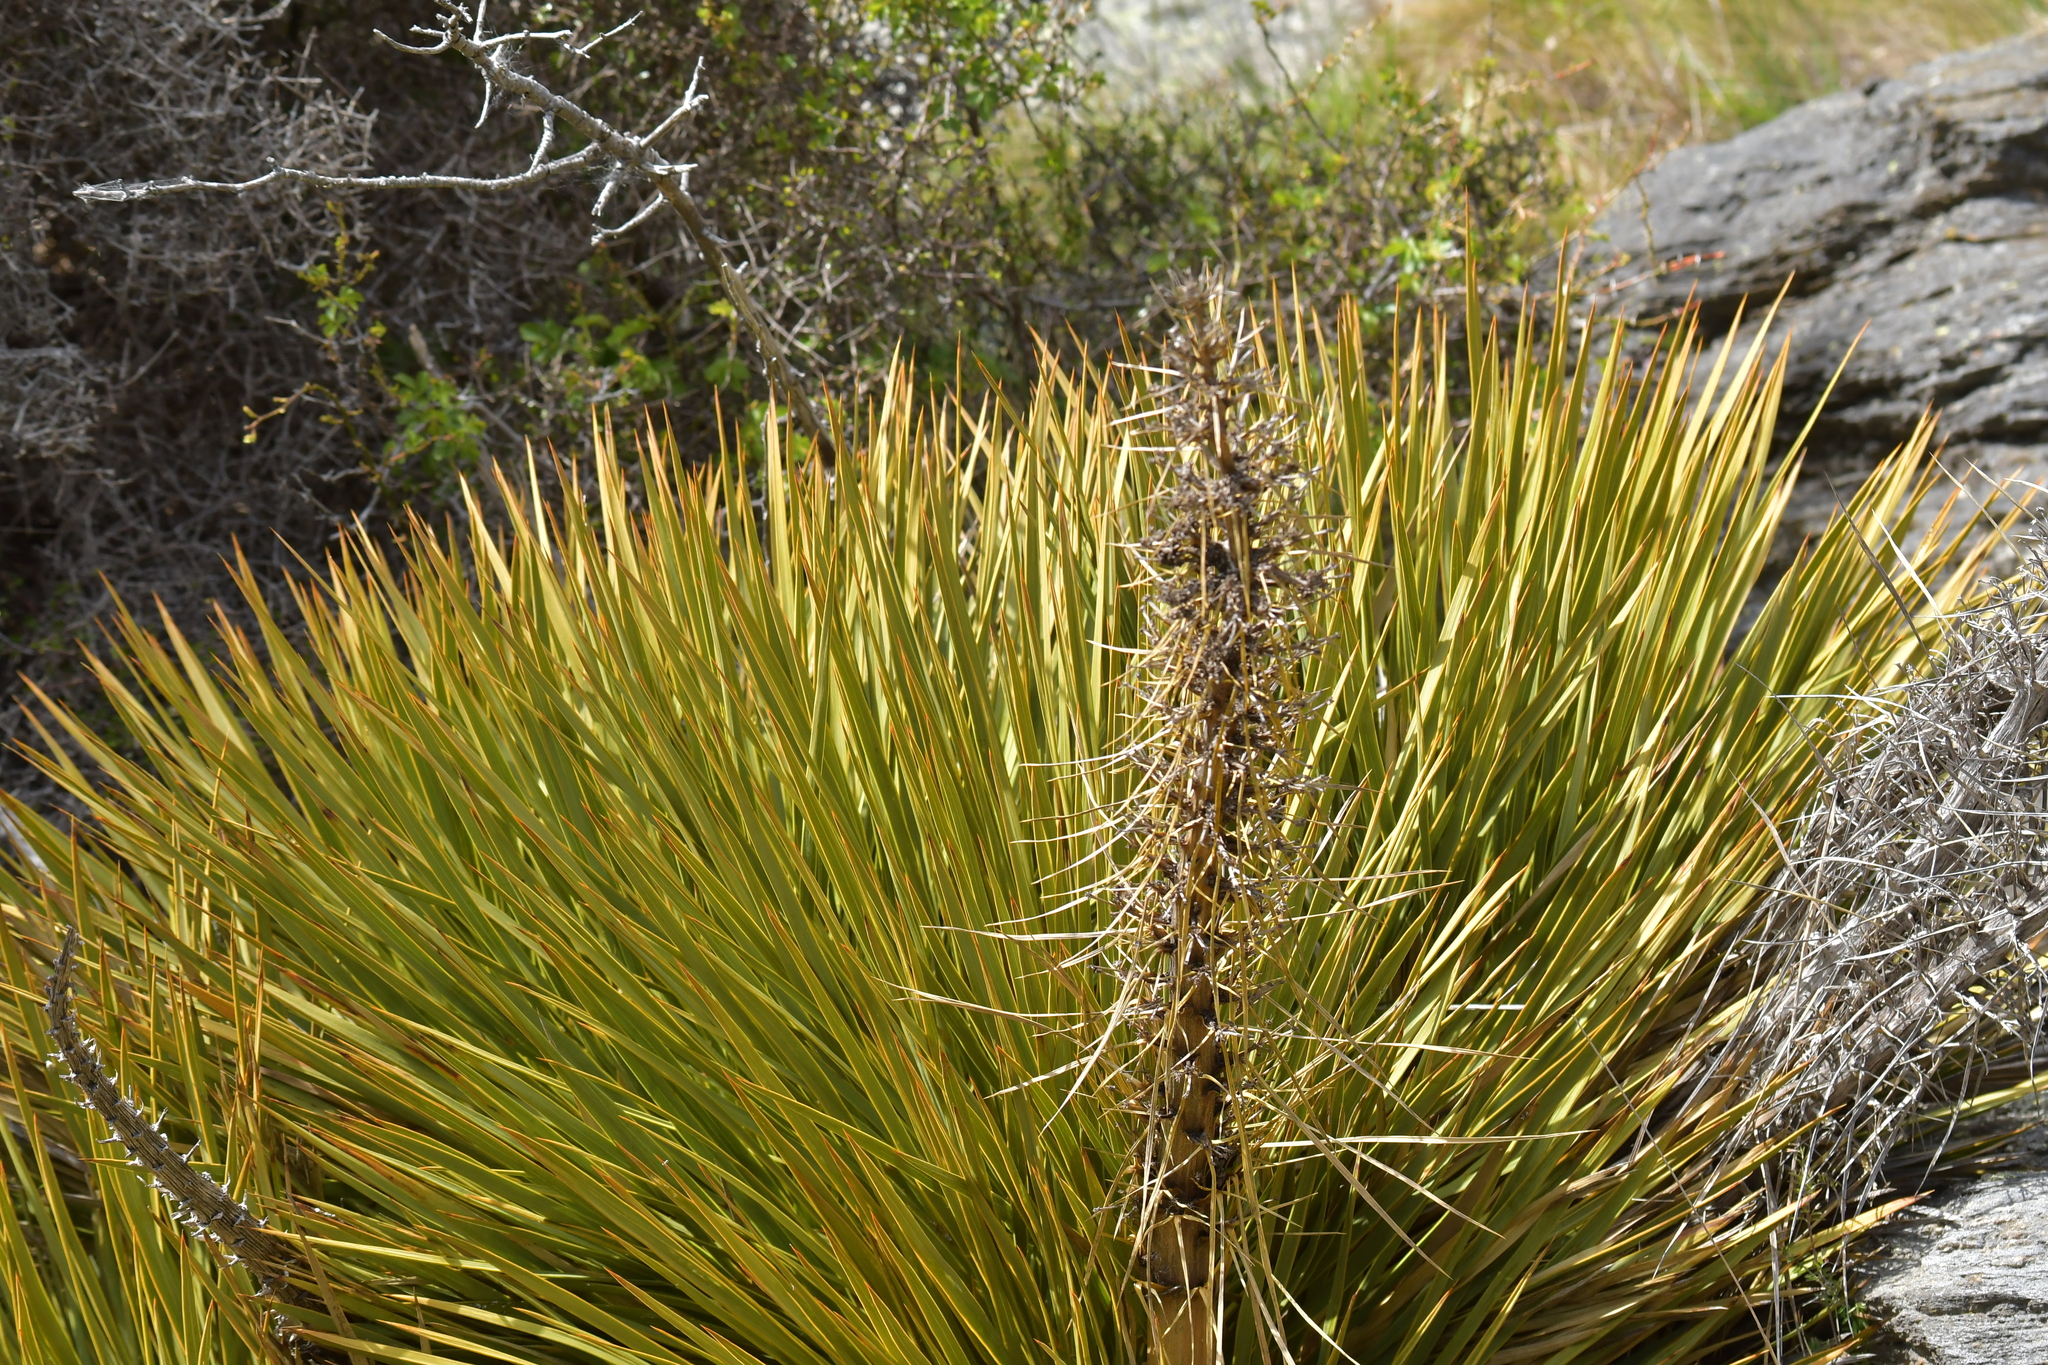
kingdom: Plantae
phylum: Tracheophyta
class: Magnoliopsida
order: Apiales
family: Apiaceae
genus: Aciphylla
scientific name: Aciphylla aurea
